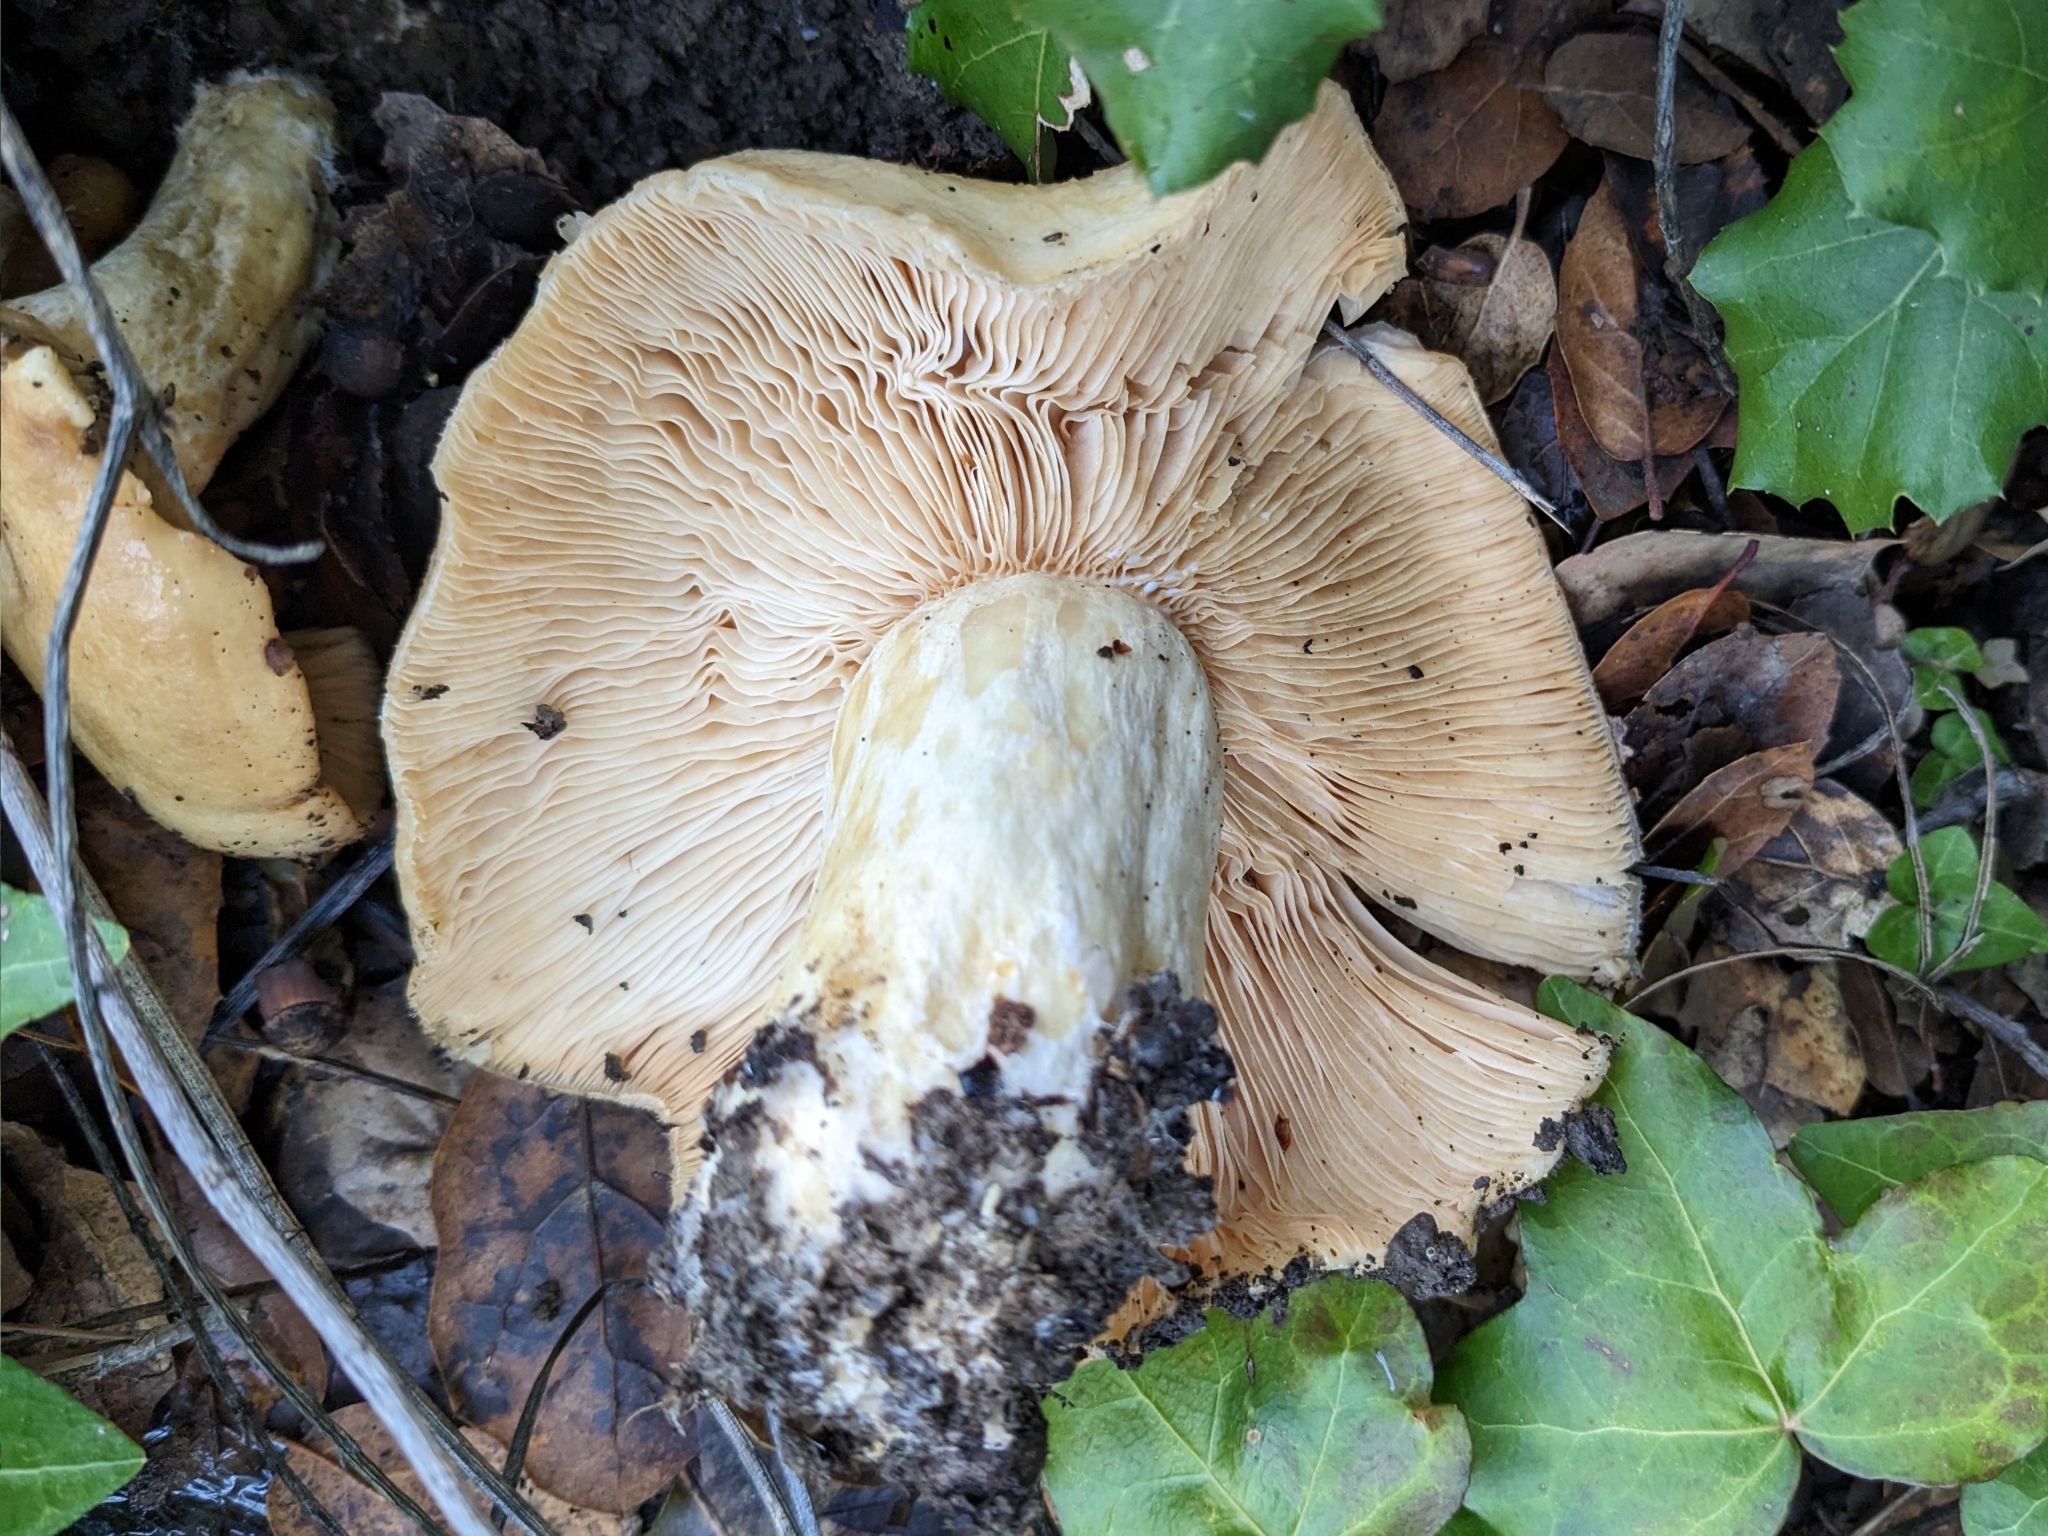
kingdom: Fungi
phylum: Basidiomycota
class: Agaricomycetes
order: Russulales
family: Russulaceae
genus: Lactarius
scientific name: Lactarius alnicola
